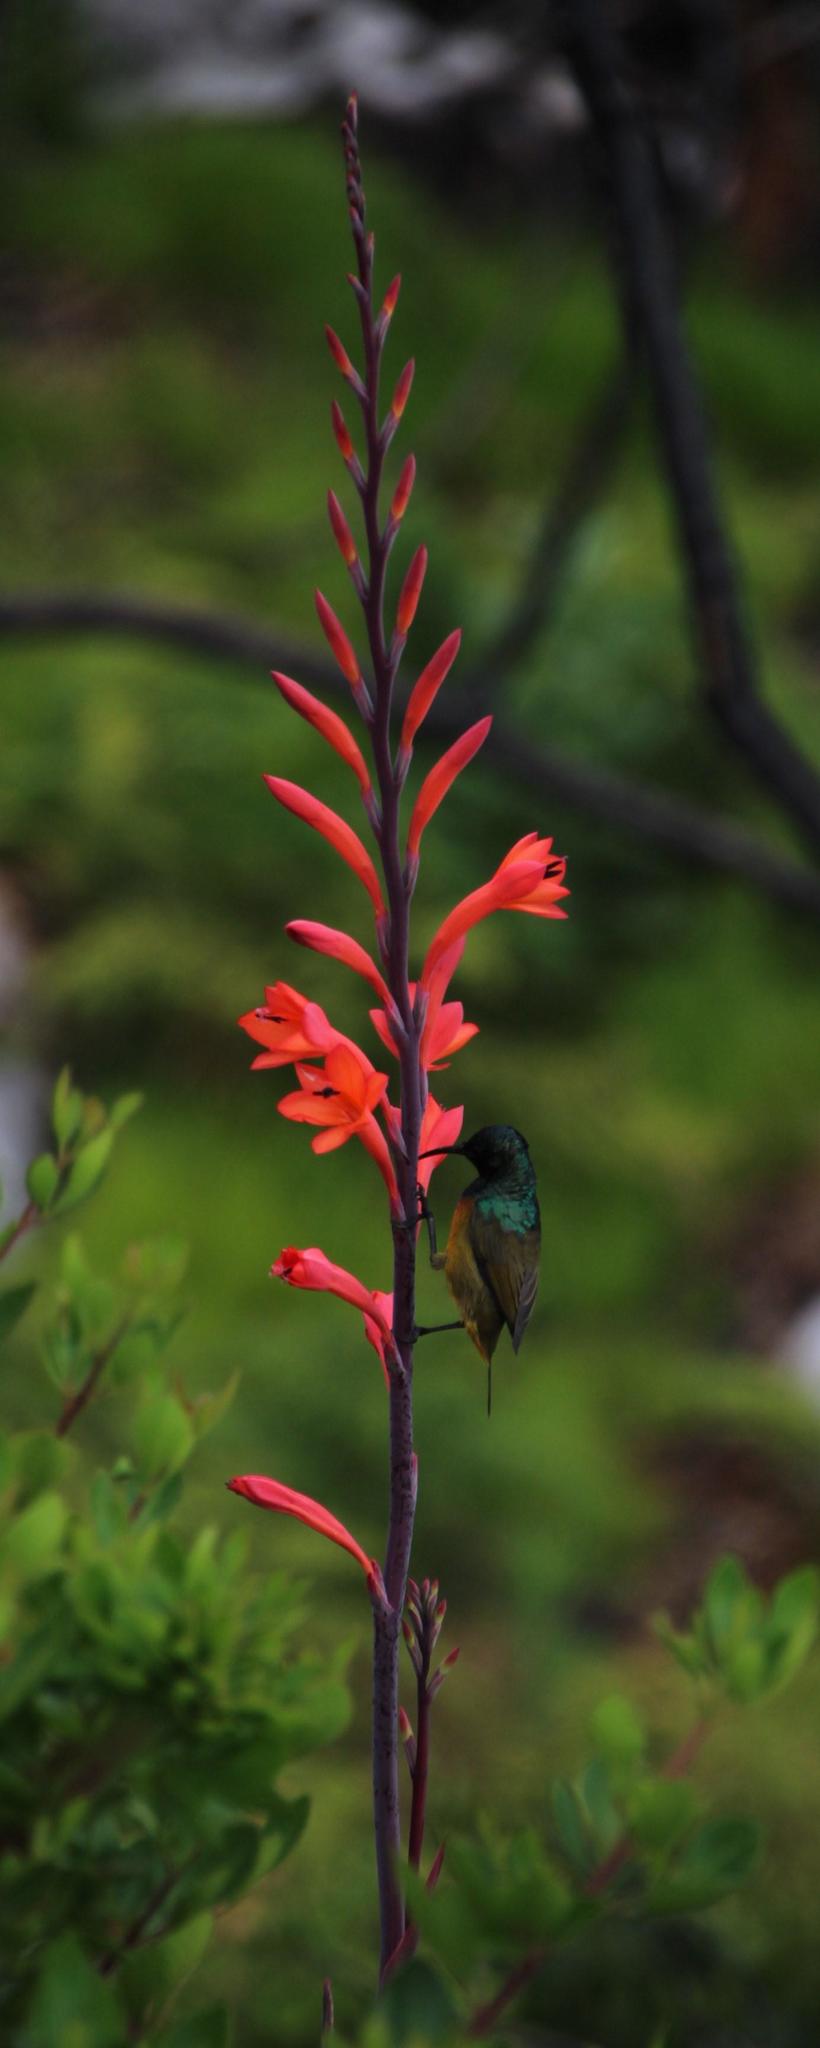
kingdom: Animalia
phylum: Chordata
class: Aves
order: Passeriformes
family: Nectariniidae
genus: Anthobaphes
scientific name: Anthobaphes violacea
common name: Orange-breasted sunbird
